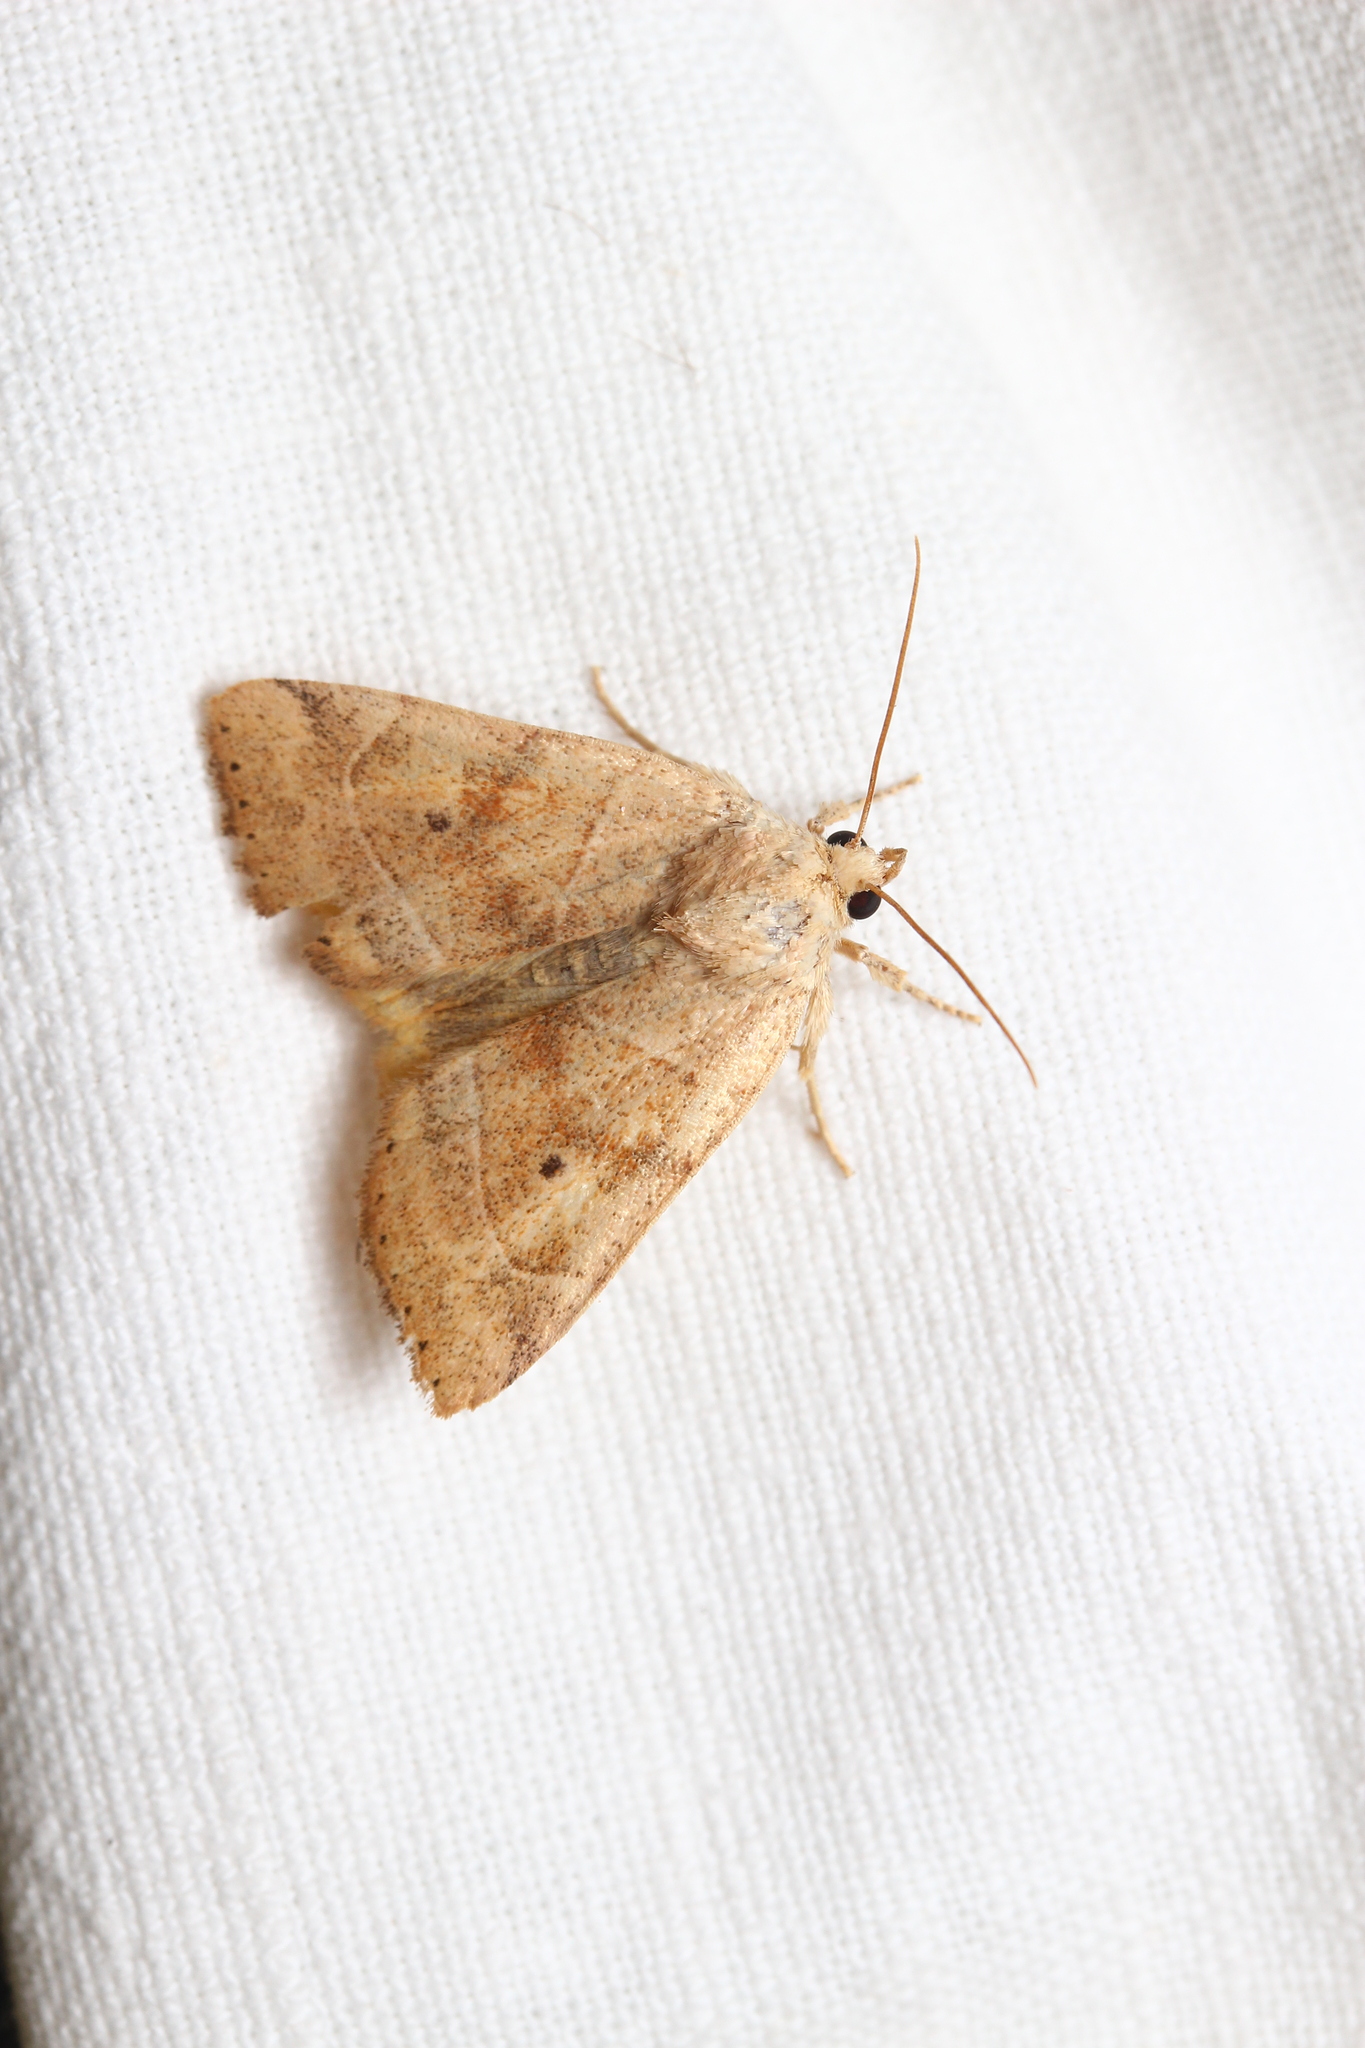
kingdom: Animalia
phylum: Arthropoda
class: Insecta
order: Lepidoptera
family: Noctuidae
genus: Cosmia
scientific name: Cosmia trapezina
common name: Dun-bar
